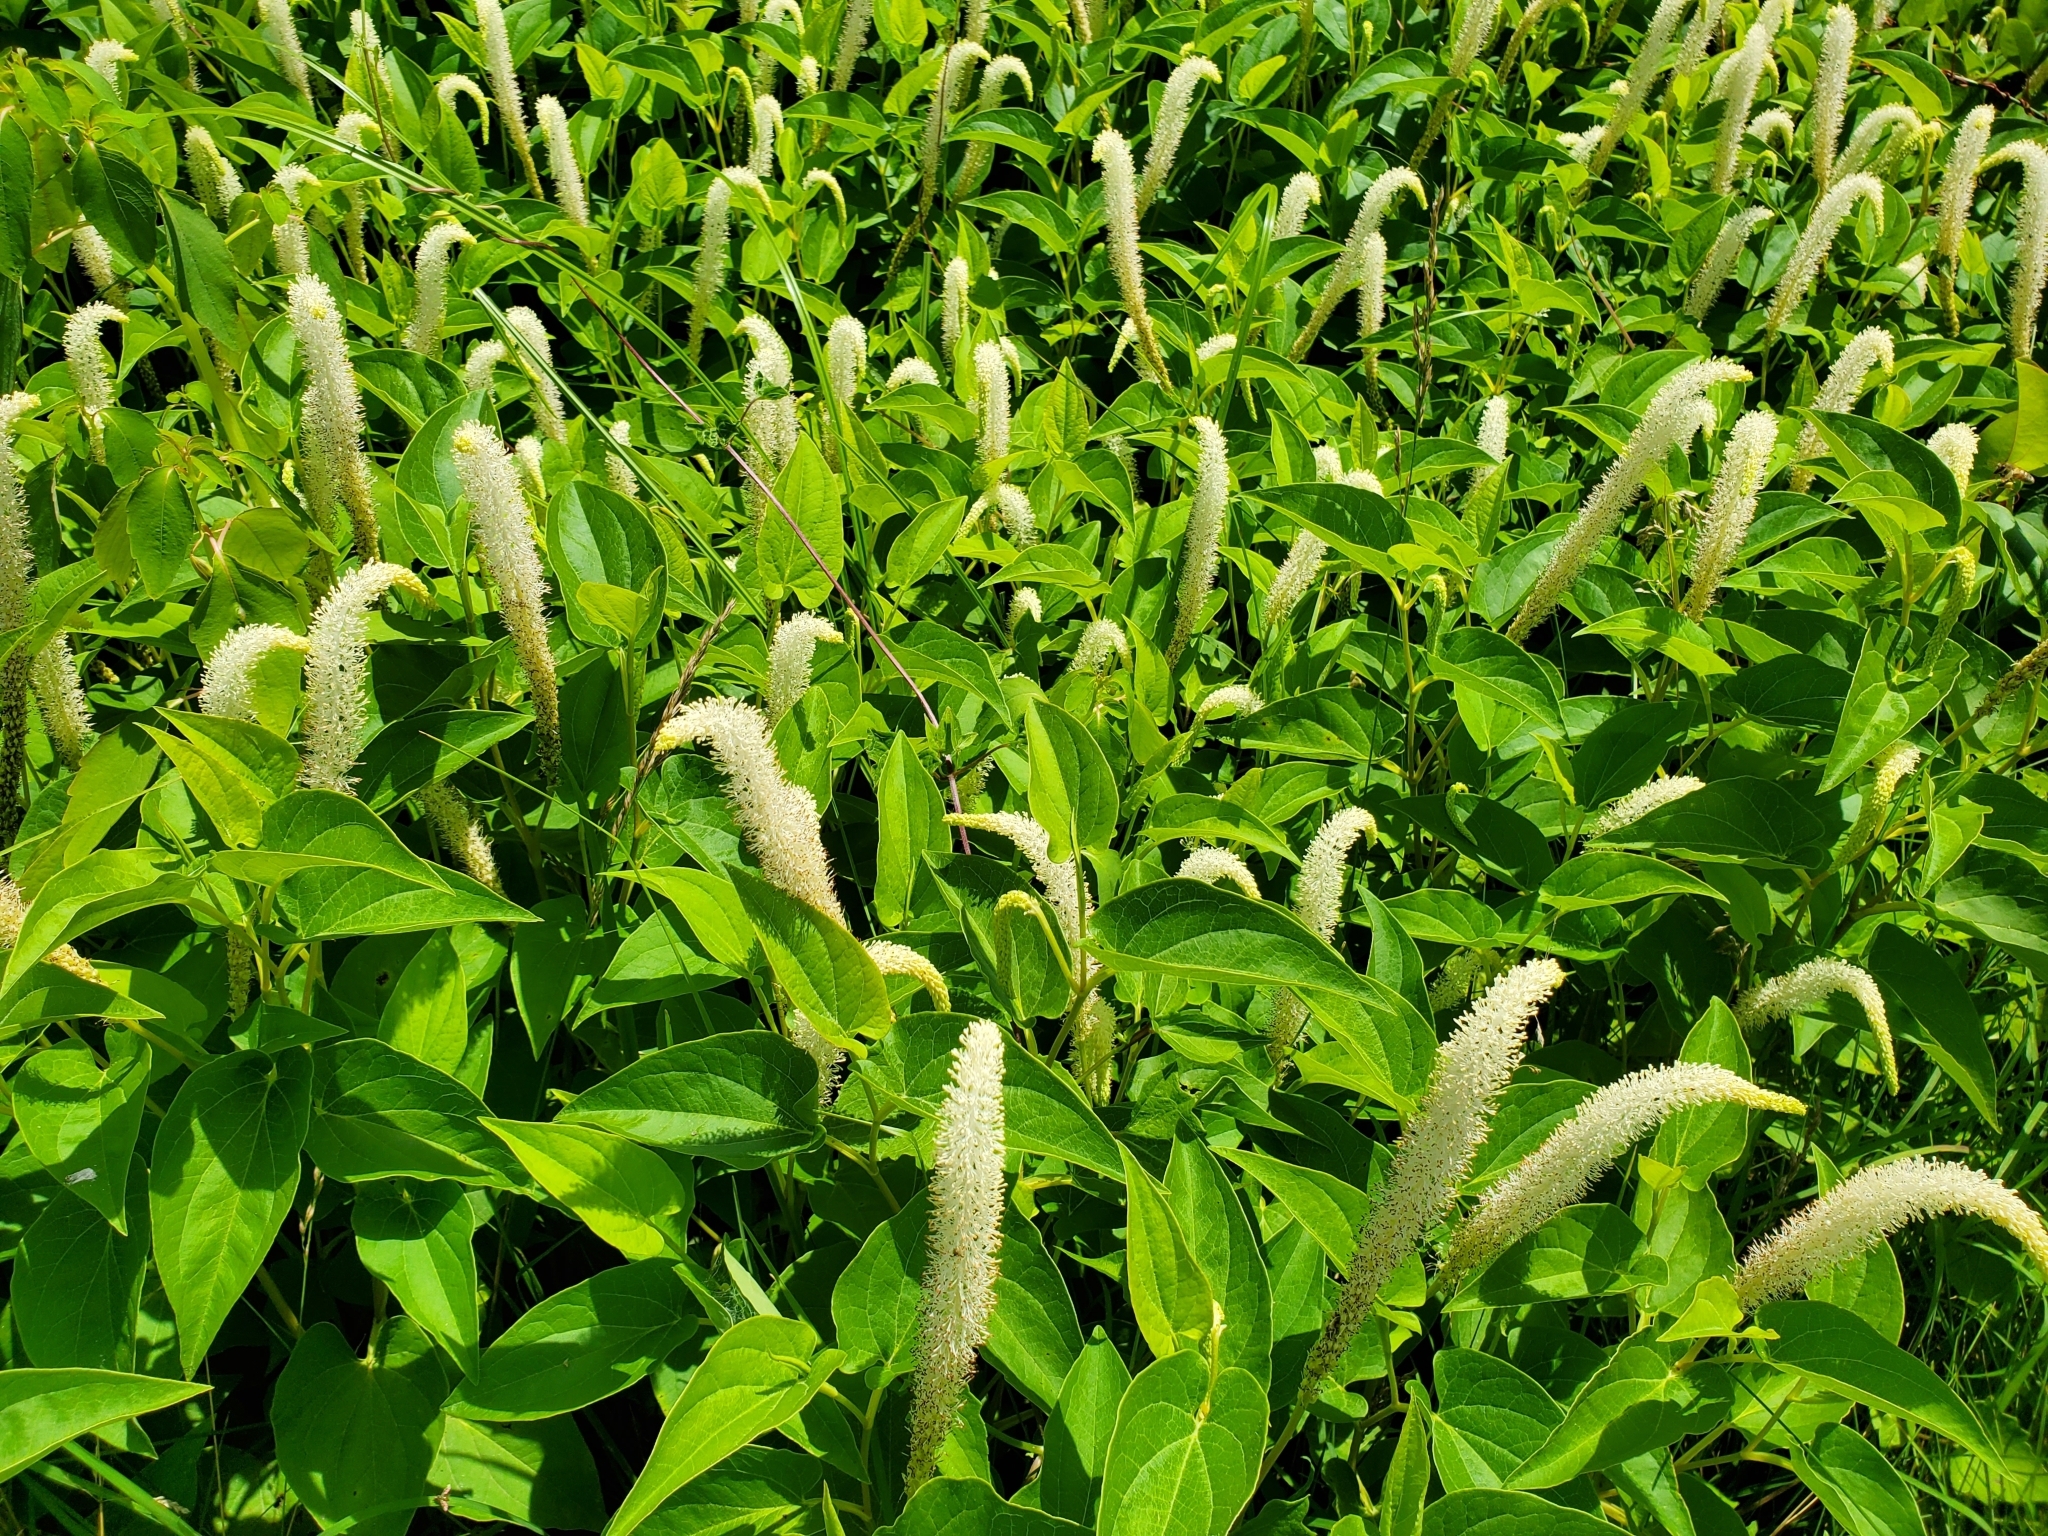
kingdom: Plantae
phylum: Tracheophyta
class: Magnoliopsida
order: Piperales
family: Saururaceae
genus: Saururus
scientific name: Saururus cernuus
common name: Lizard's-tail
